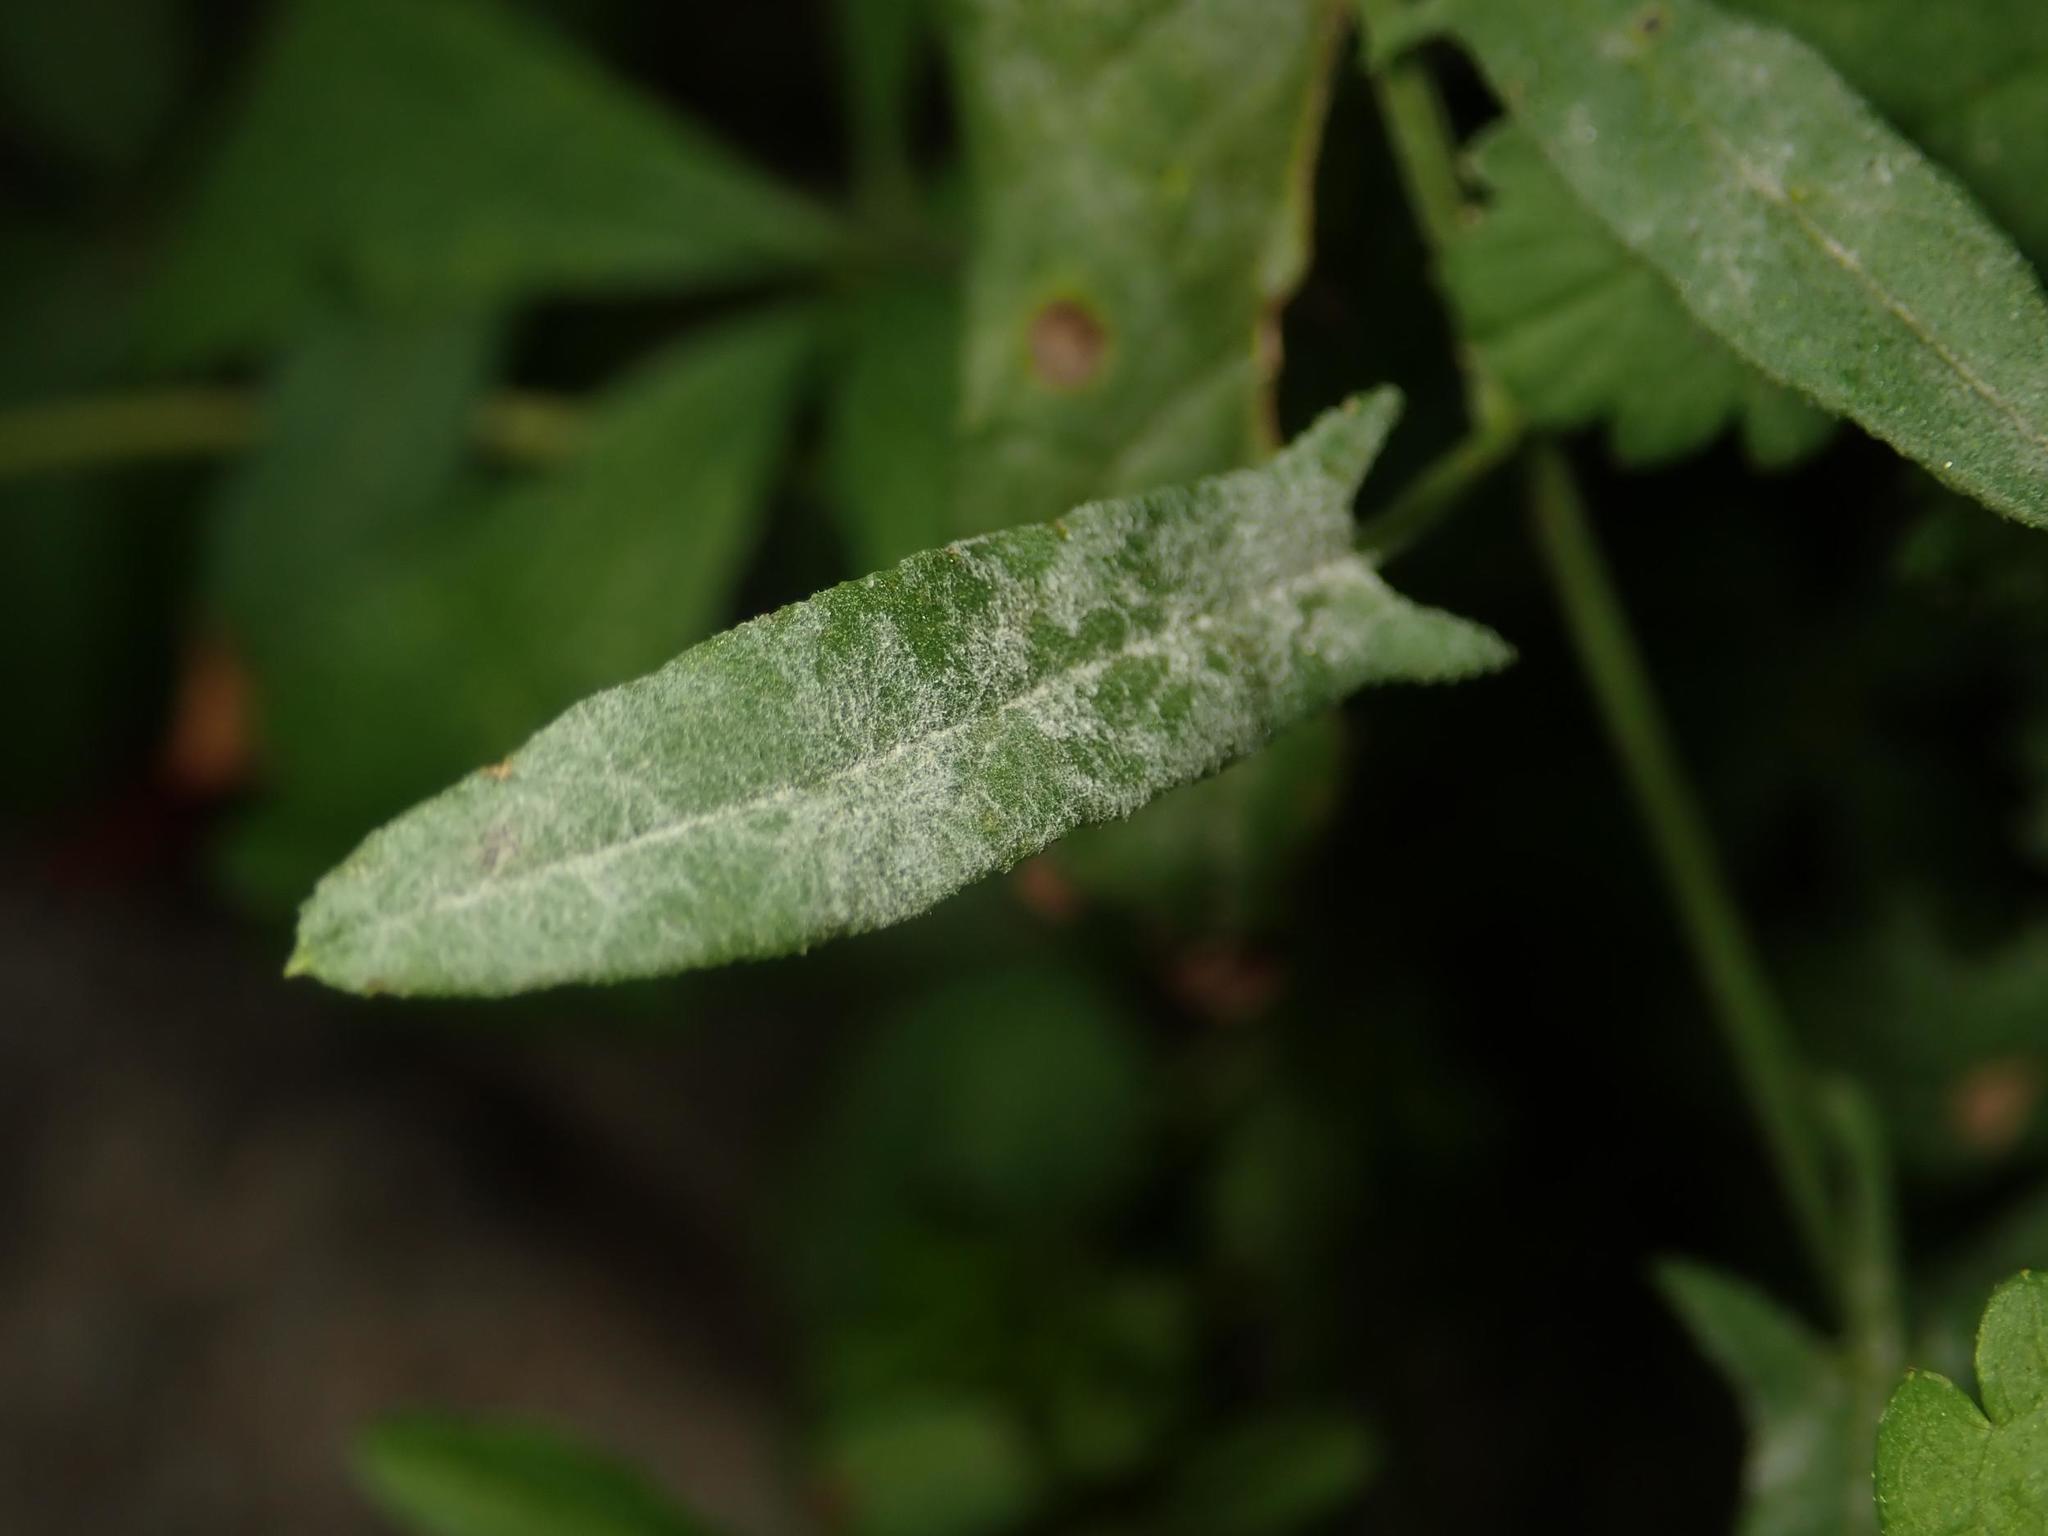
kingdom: Fungi
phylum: Ascomycota
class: Leotiomycetes
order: Helotiales
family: Erysiphaceae
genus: Erysiphe
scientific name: Erysiphe convolvuli
